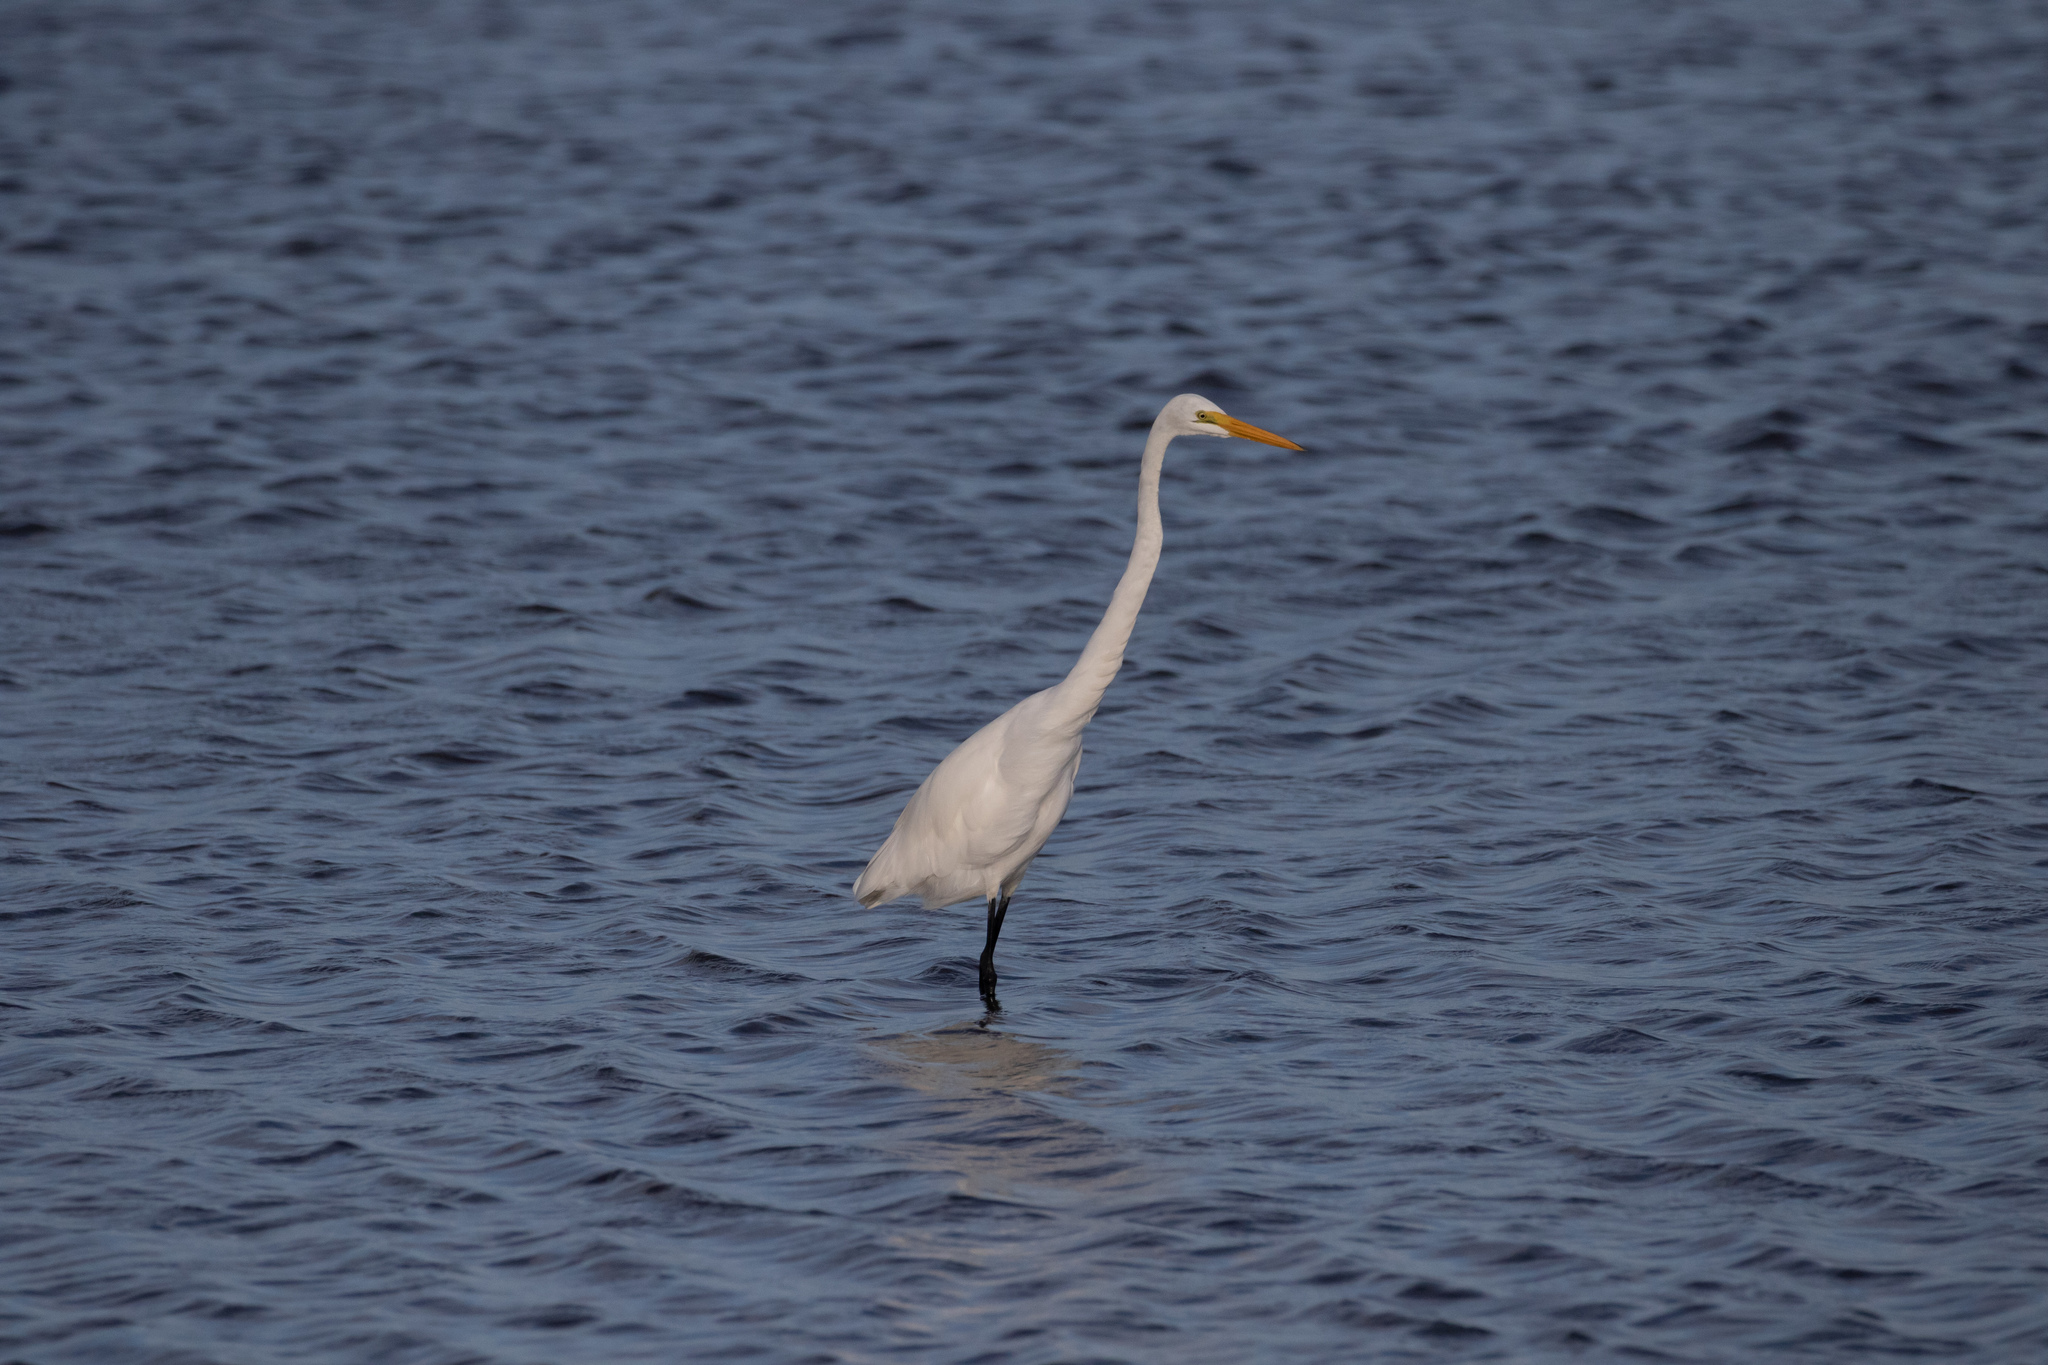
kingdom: Animalia
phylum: Chordata
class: Aves
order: Pelecaniformes
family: Ardeidae
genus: Ardea
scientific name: Ardea alba
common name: Great egret
